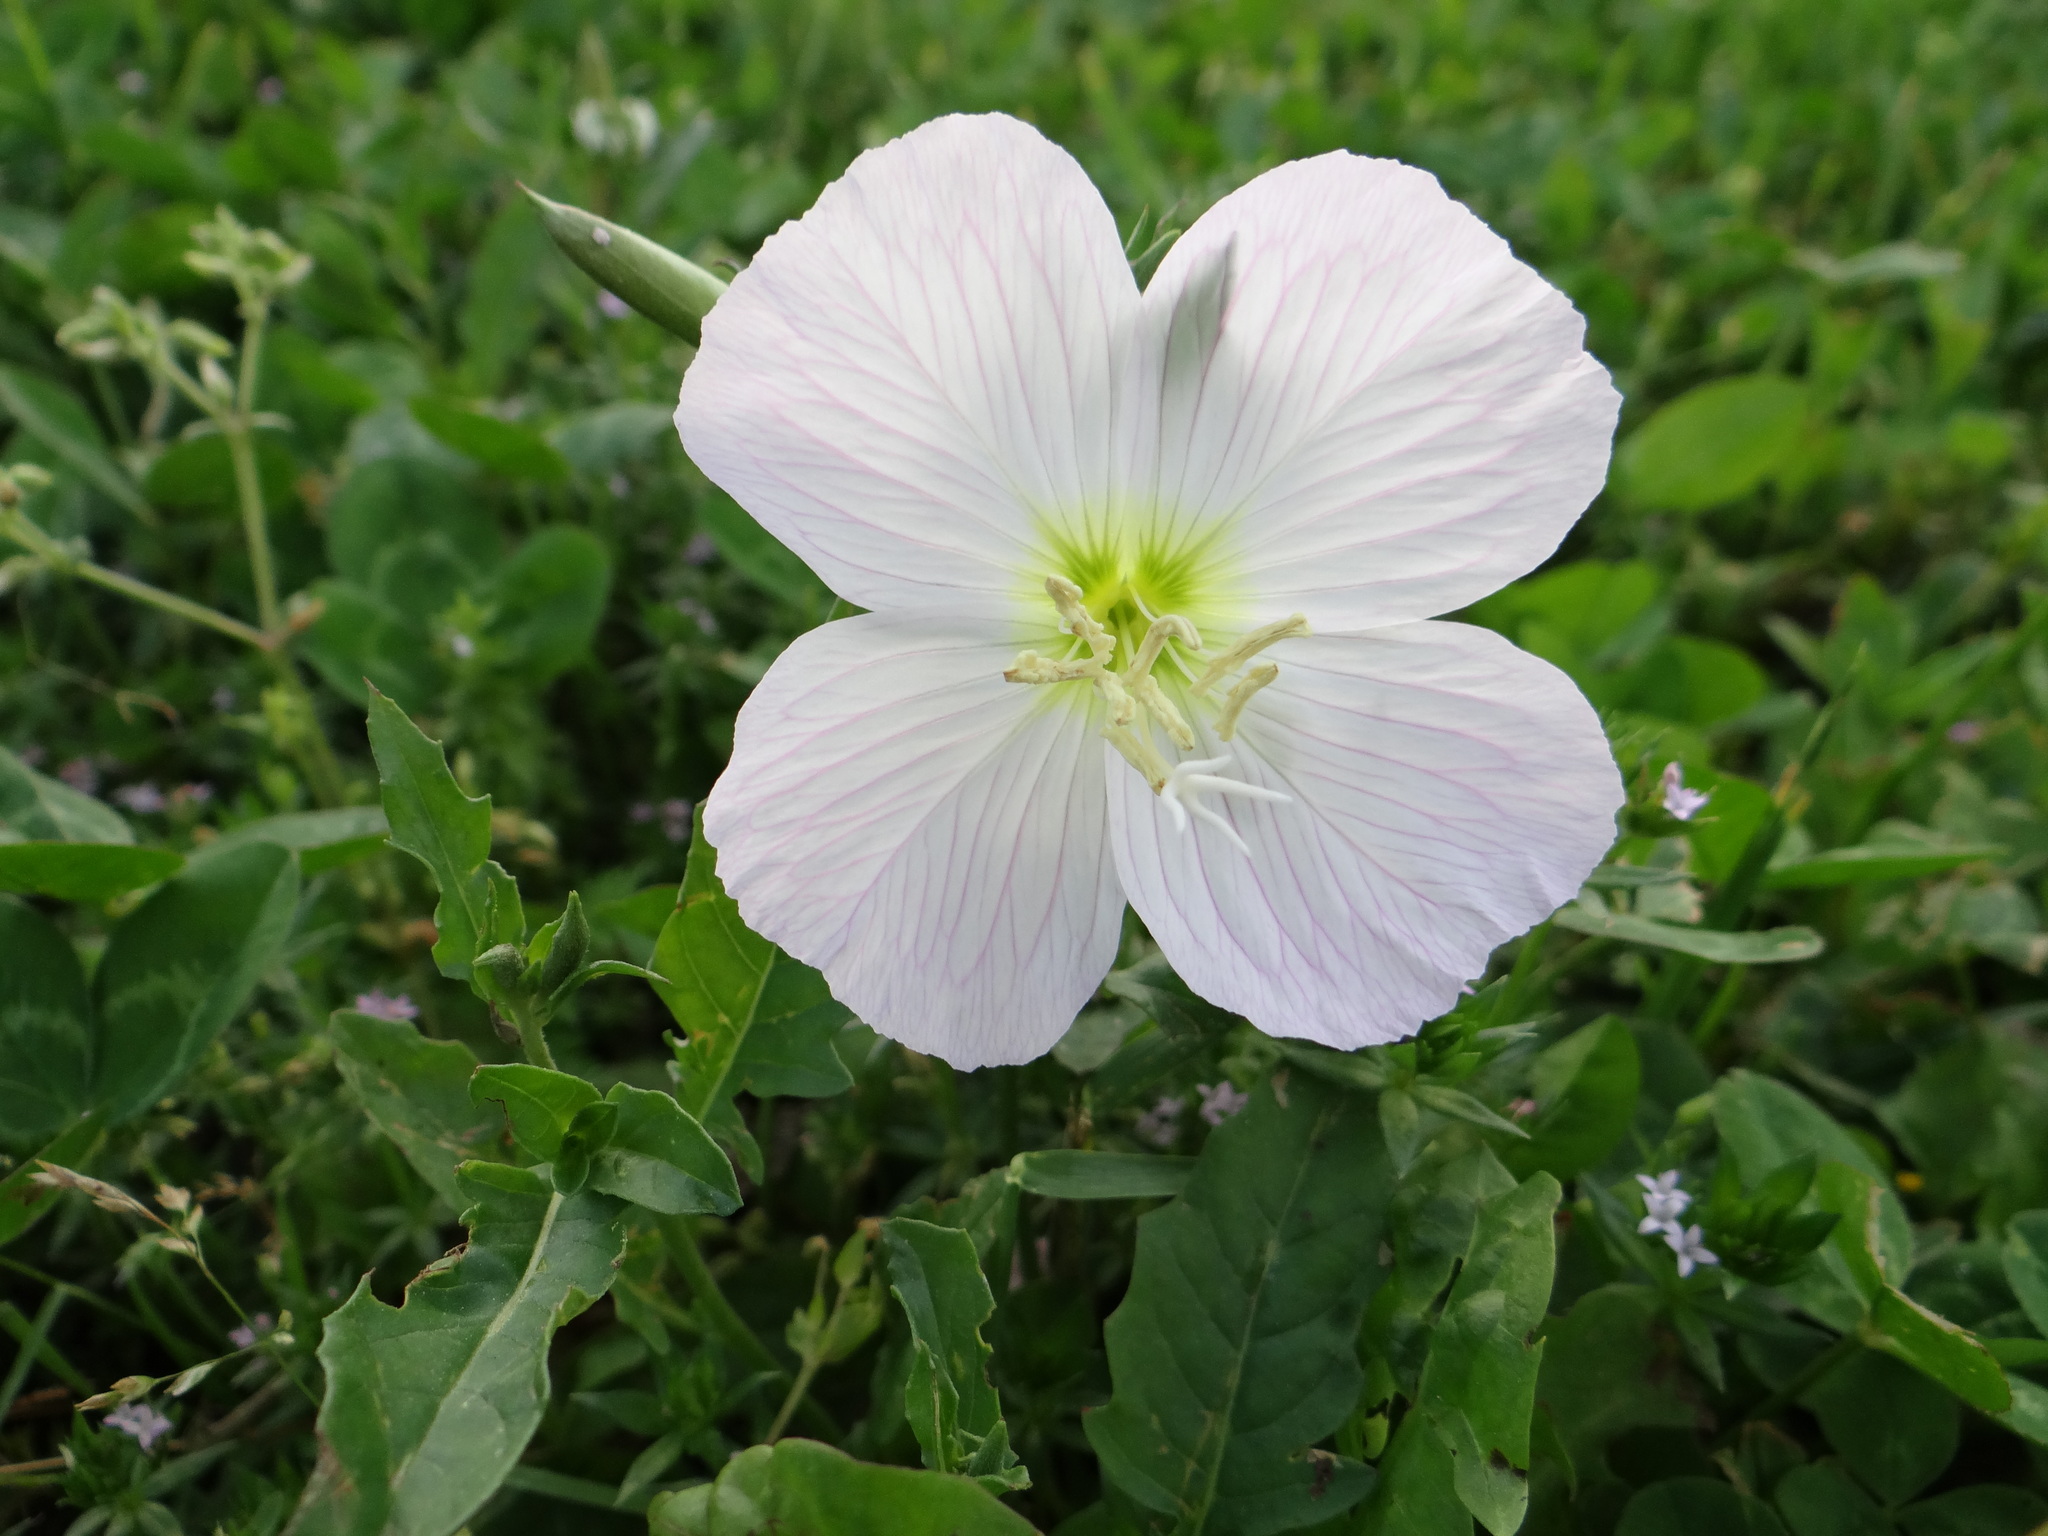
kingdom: Plantae
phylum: Tracheophyta
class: Magnoliopsida
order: Myrtales
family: Onagraceae
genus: Oenothera
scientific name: Oenothera speciosa
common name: White evening-primrose
